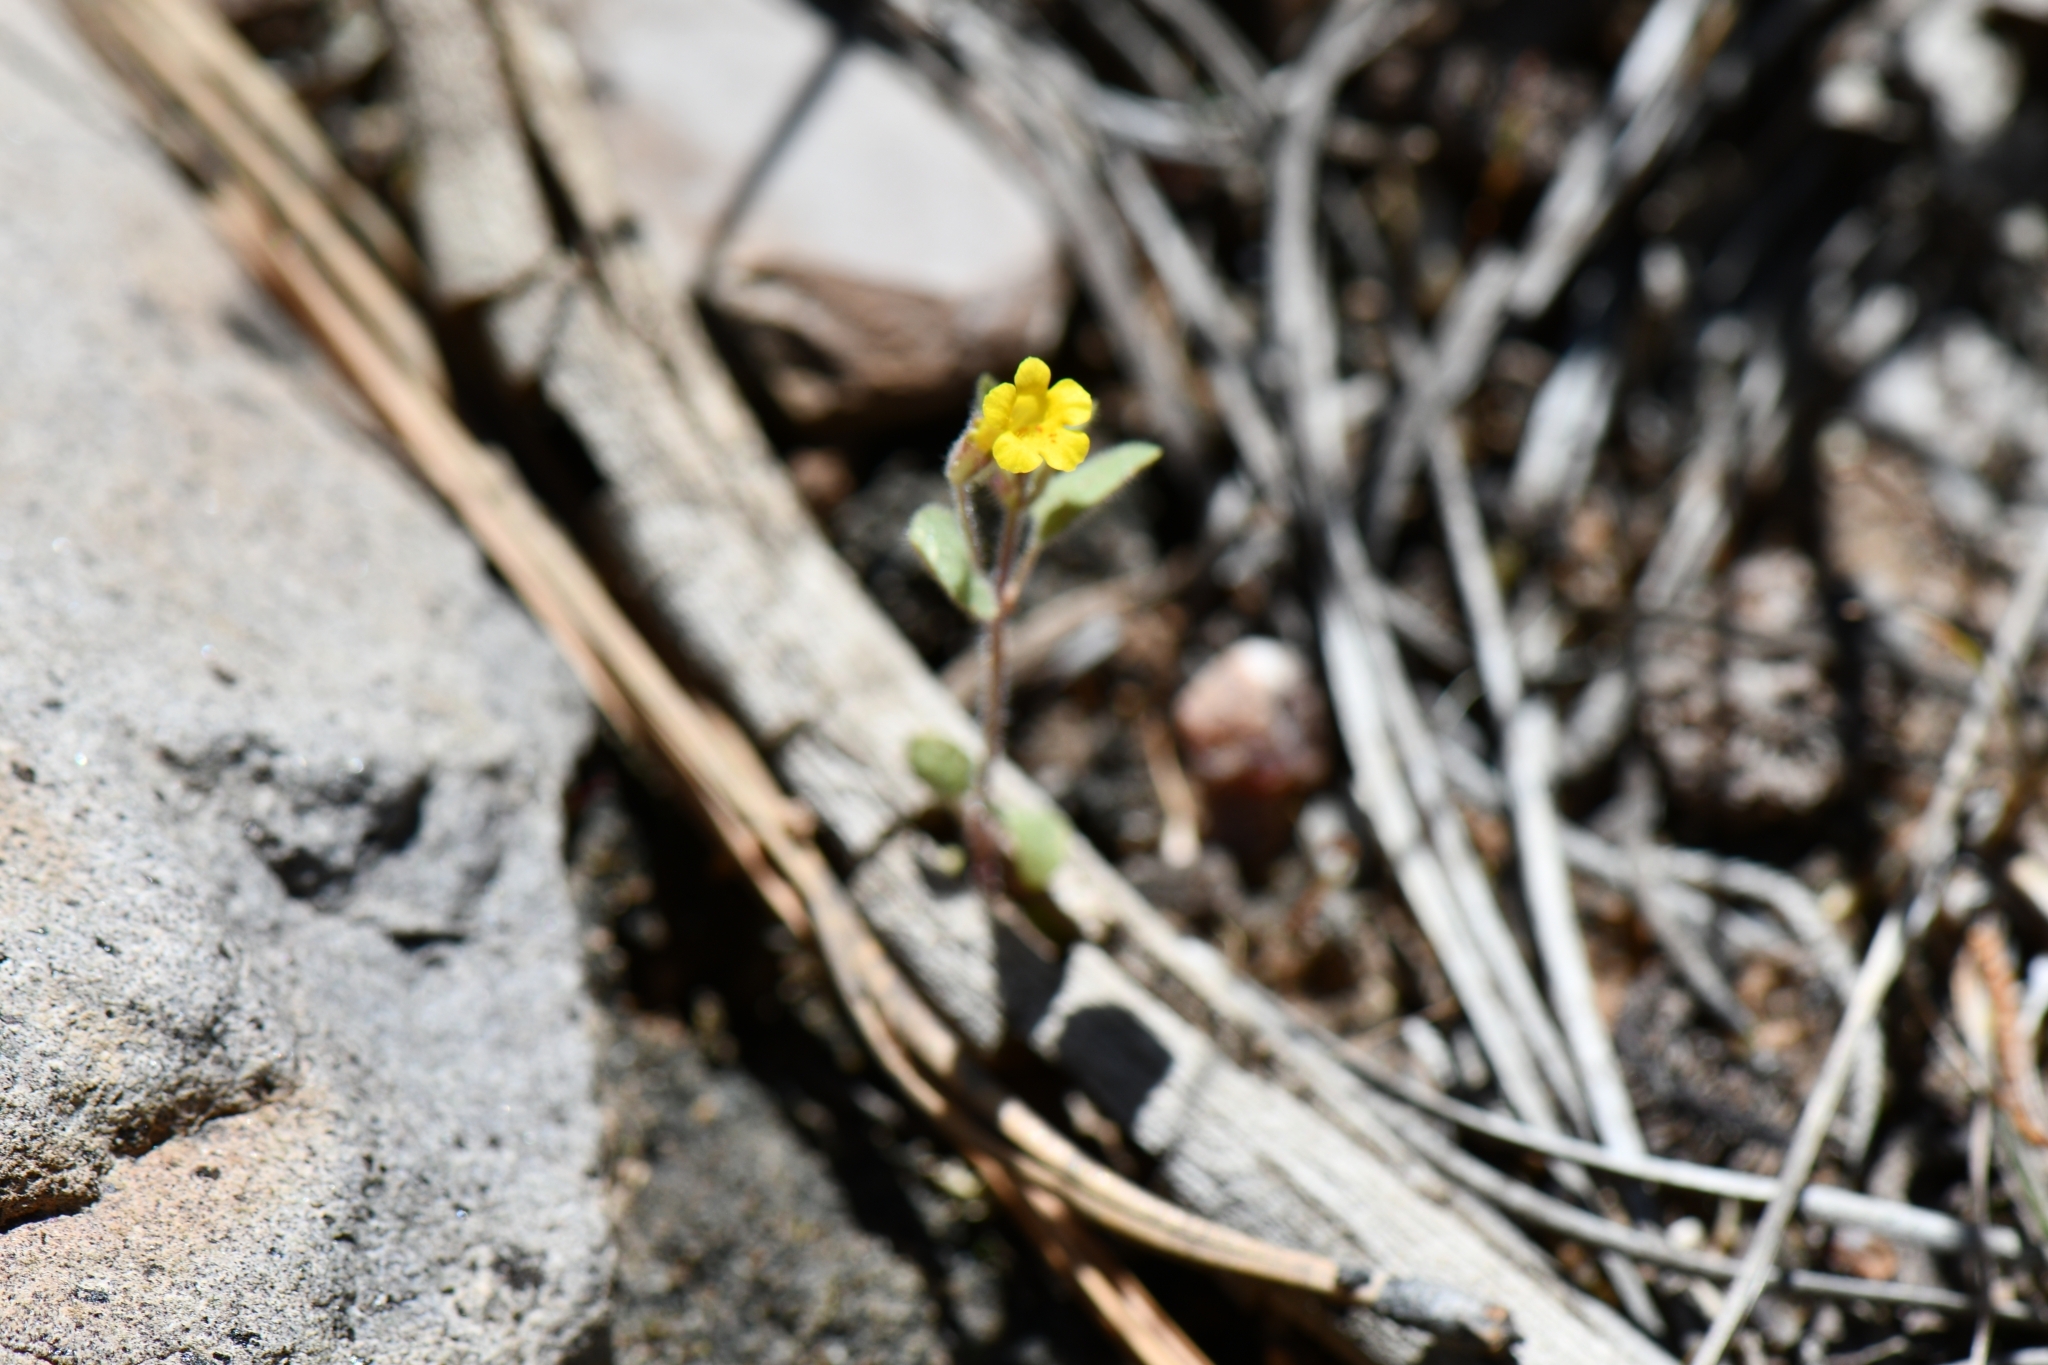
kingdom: Plantae
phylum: Tracheophyta
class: Magnoliopsida
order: Lamiales
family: Phrymaceae
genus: Erythranthe
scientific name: Erythranthe floribunda
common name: Floriferous monkeyflower
